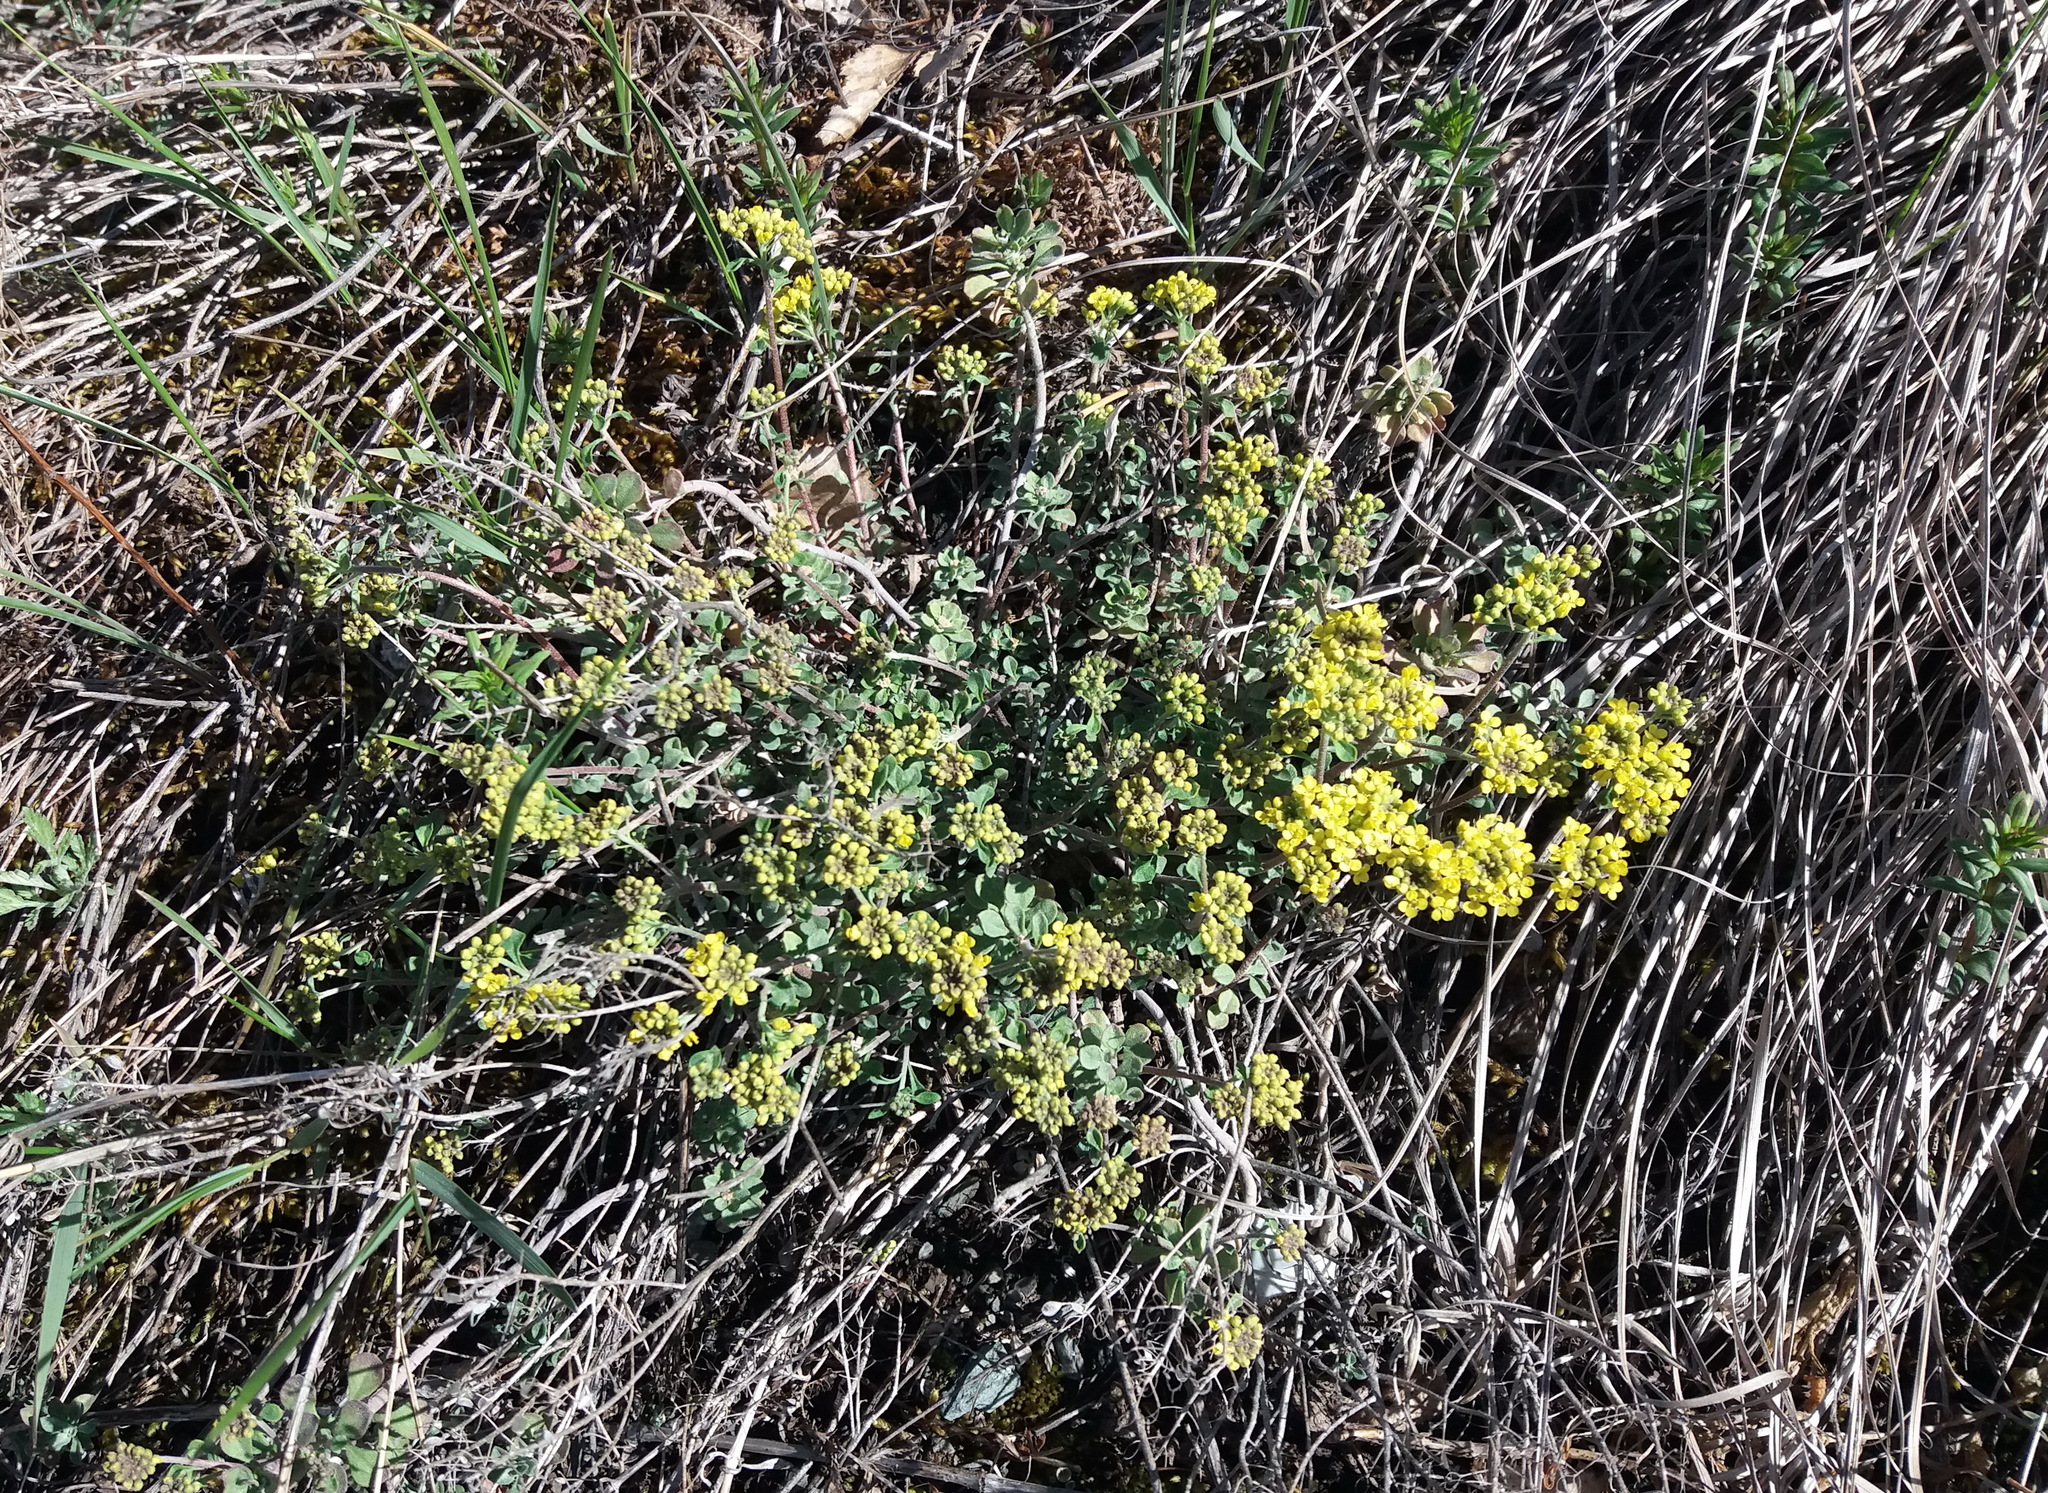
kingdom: Plantae
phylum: Tracheophyta
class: Magnoliopsida
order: Brassicales
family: Brassicaceae
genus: Odontarrhena
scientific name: Odontarrhena obovata
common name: American alyssum
